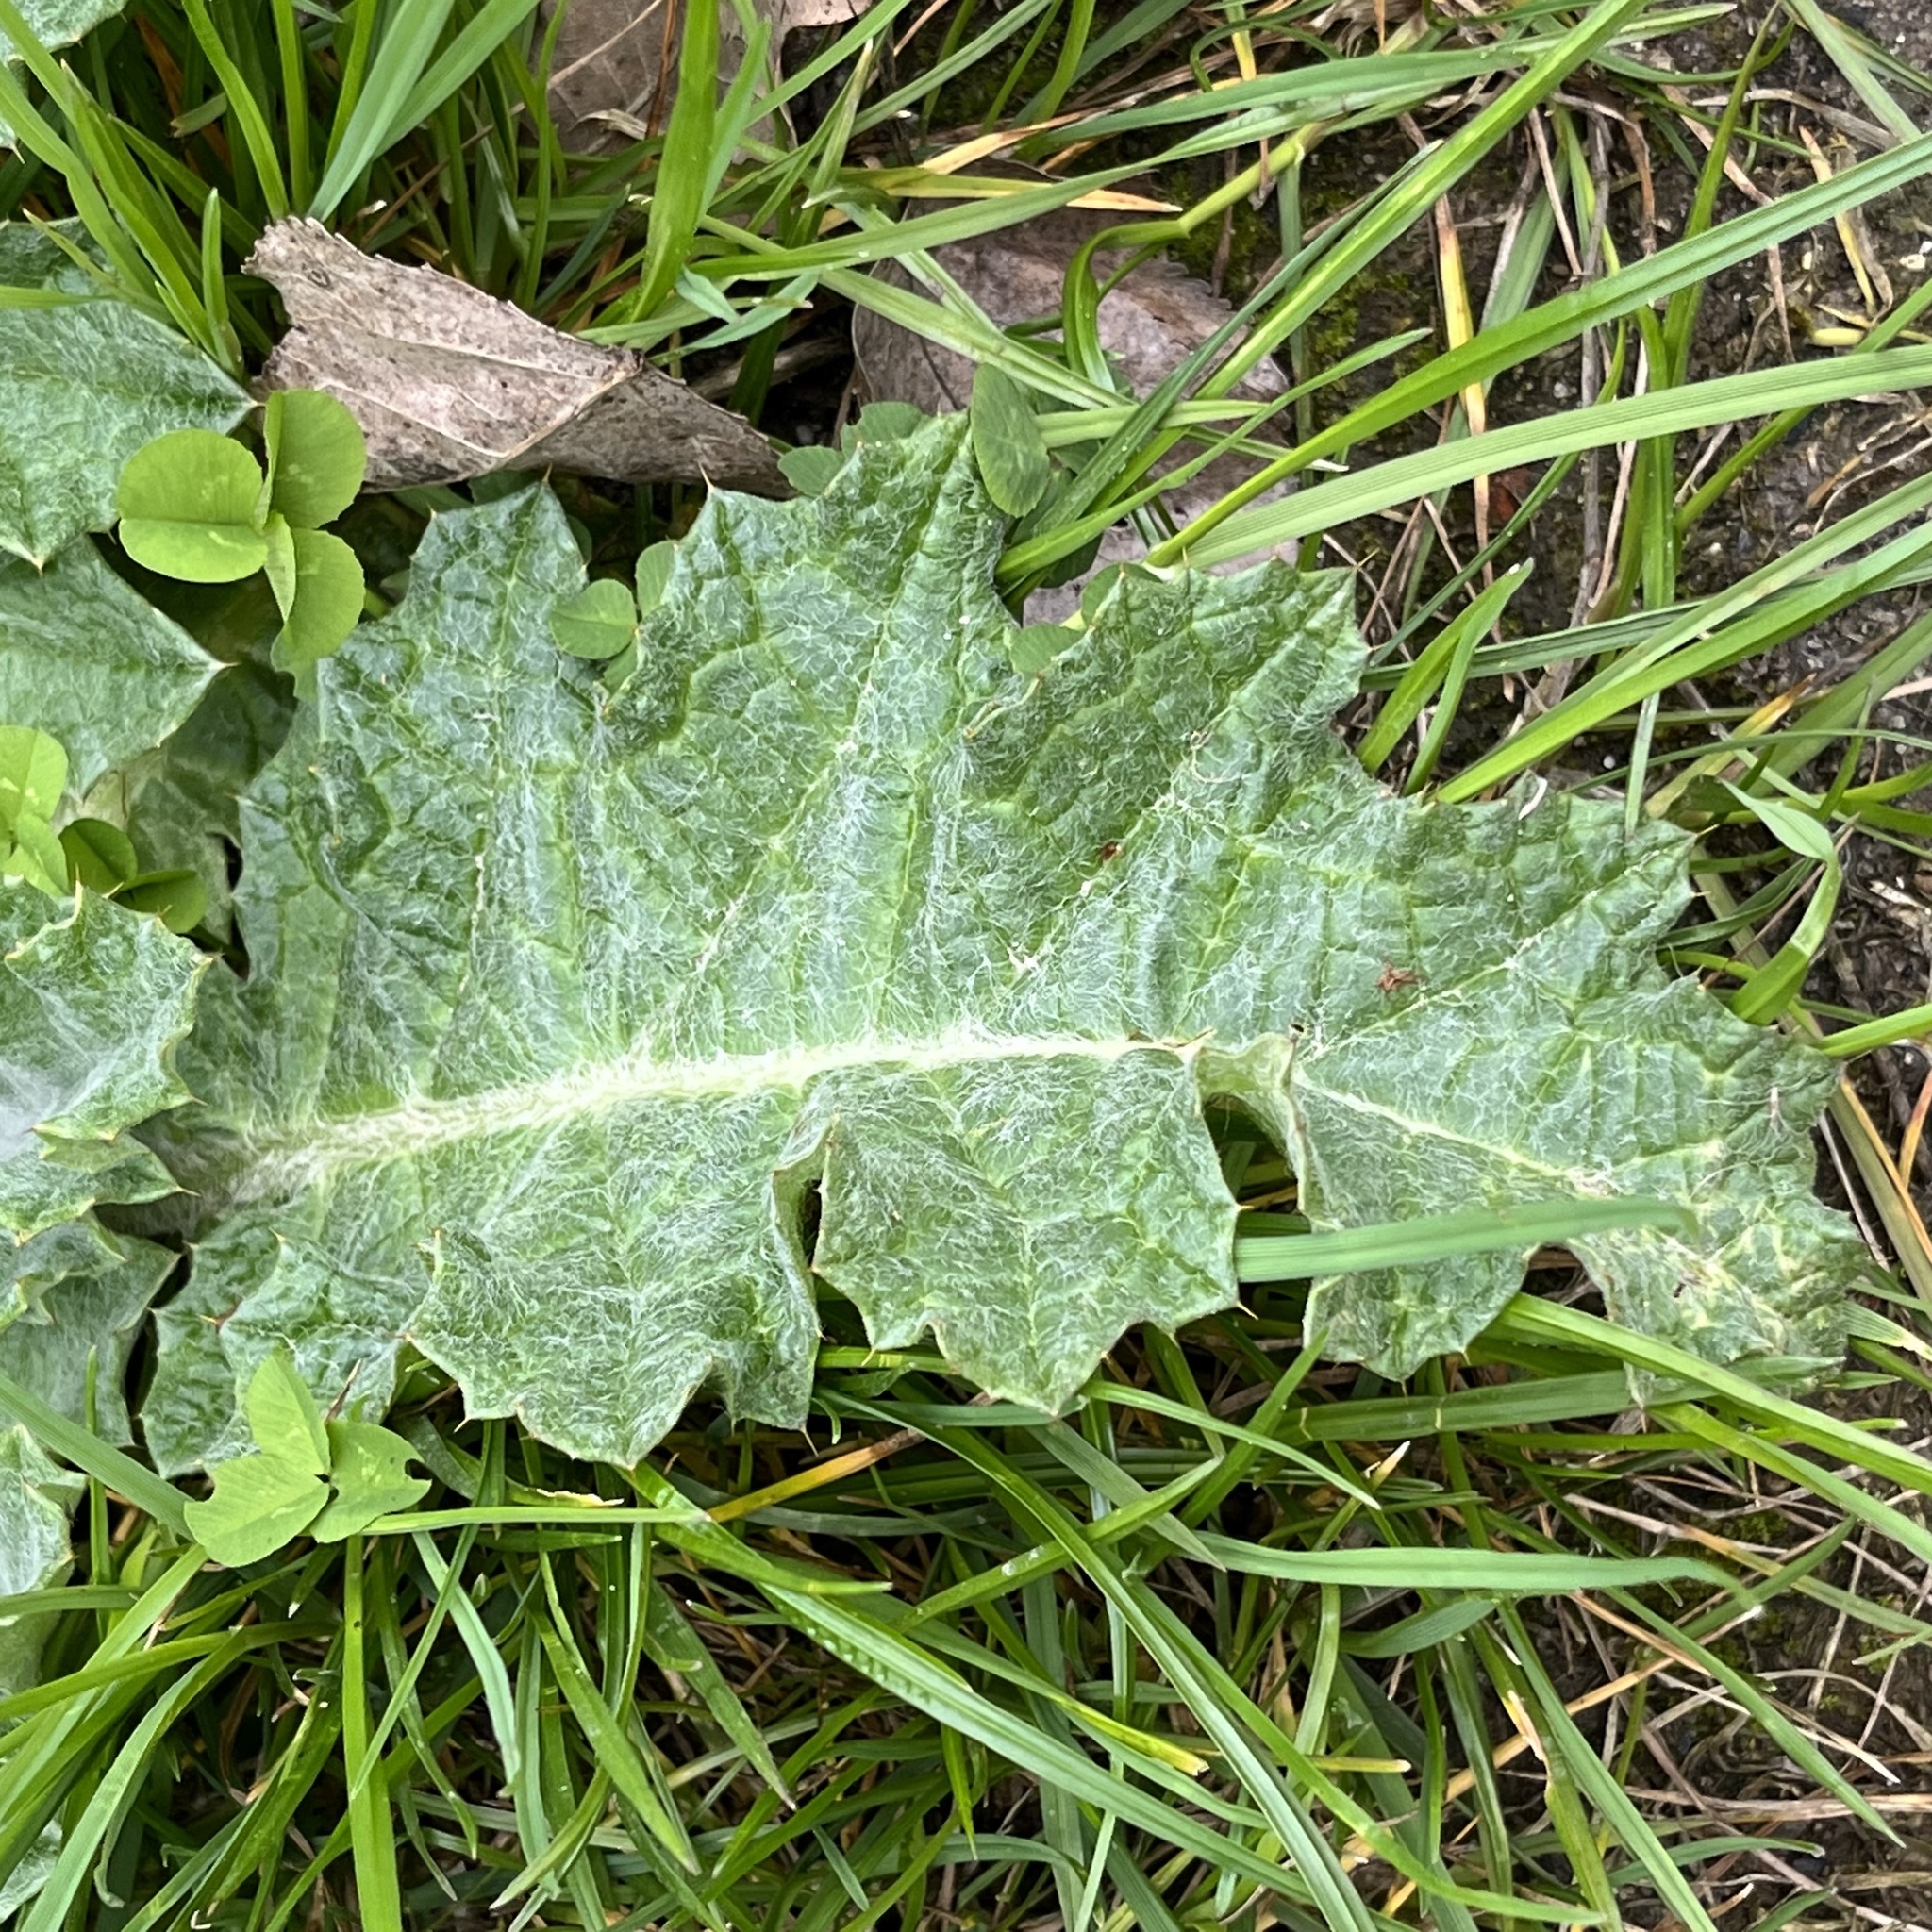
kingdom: Plantae
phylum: Tracheophyta
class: Magnoliopsida
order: Asterales
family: Asteraceae
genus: Onopordum
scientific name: Onopordum acanthium
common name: Scotch thistle
